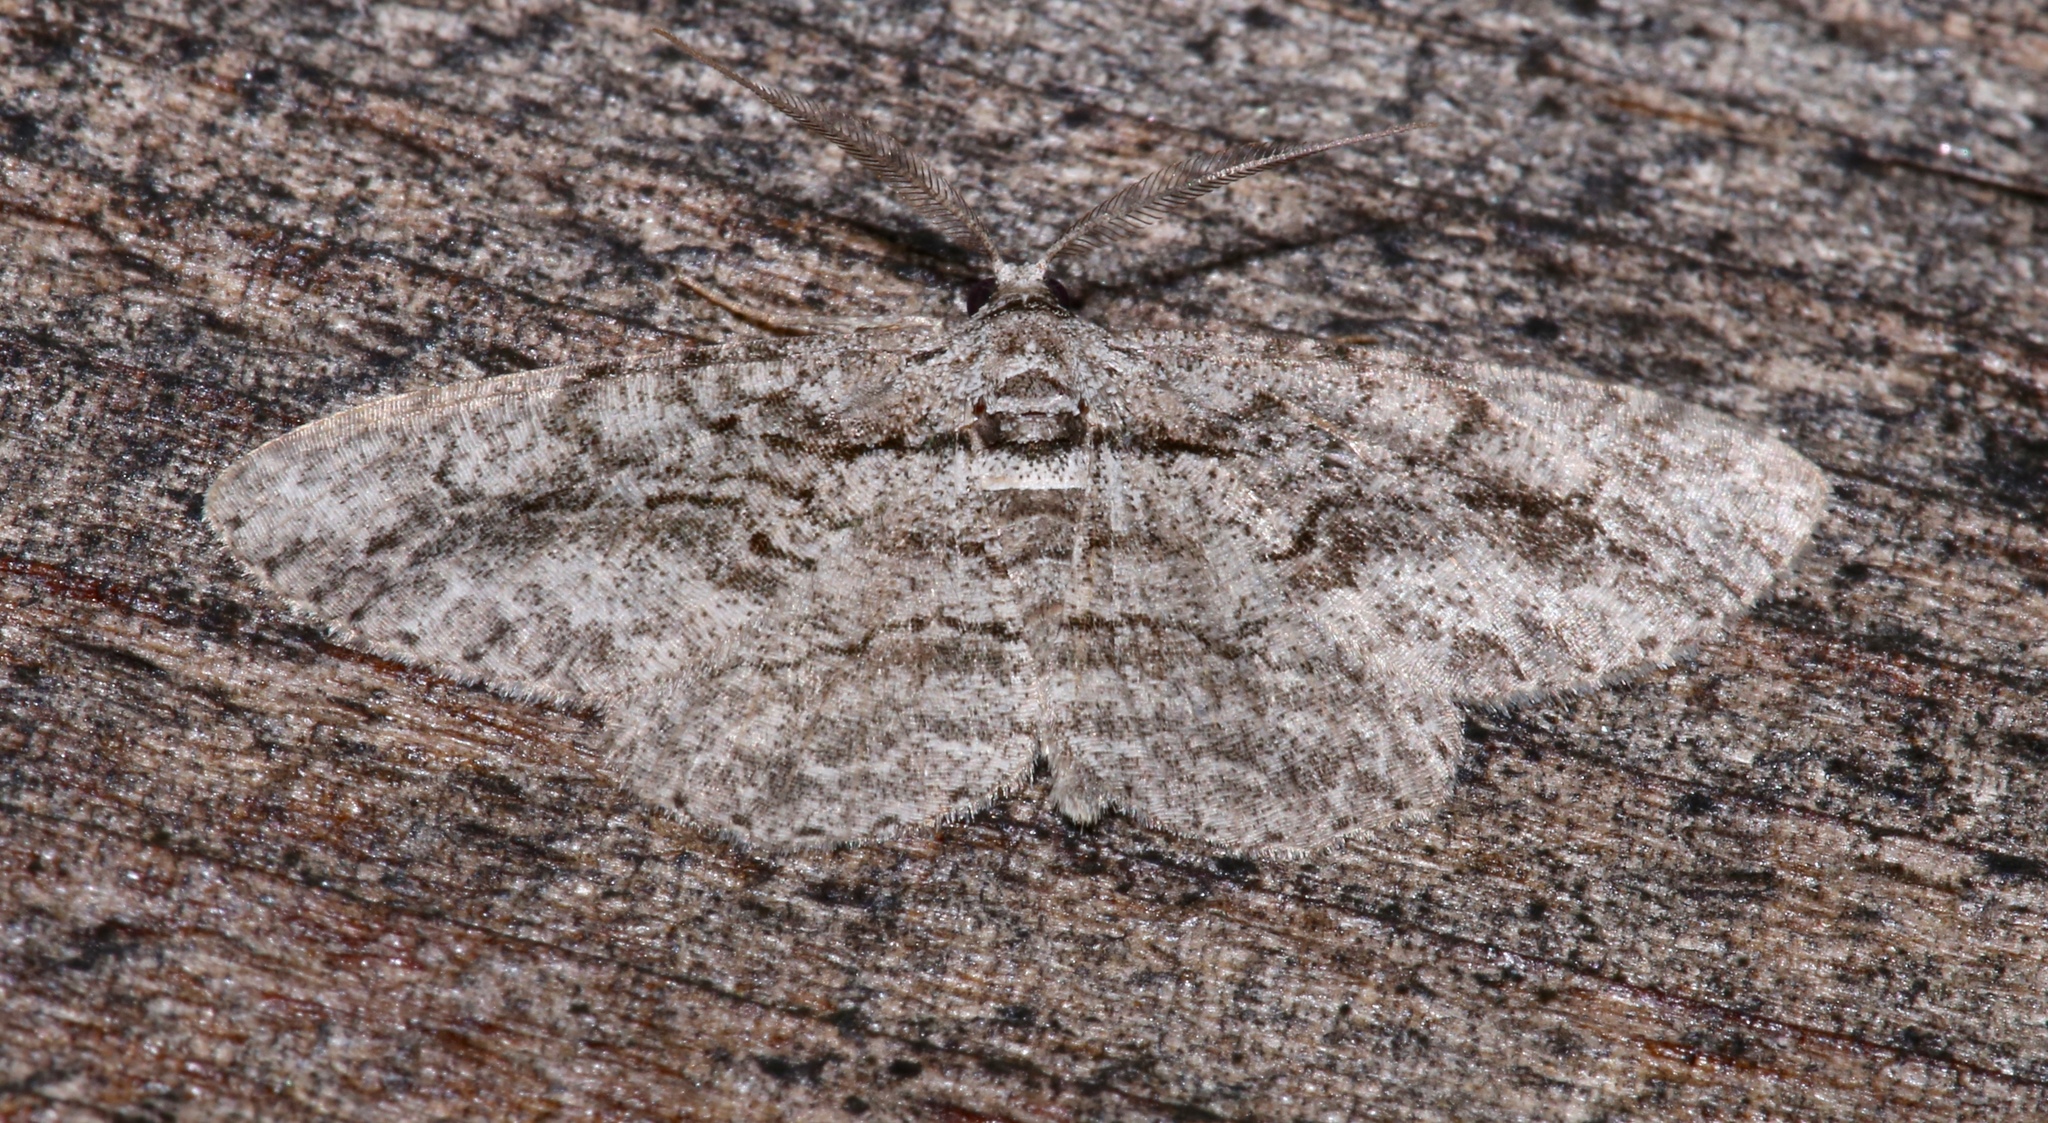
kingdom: Animalia
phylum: Arthropoda
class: Insecta
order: Lepidoptera
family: Geometridae
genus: Anavitrinella
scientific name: Anavitrinella pampinaria
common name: Common gray
